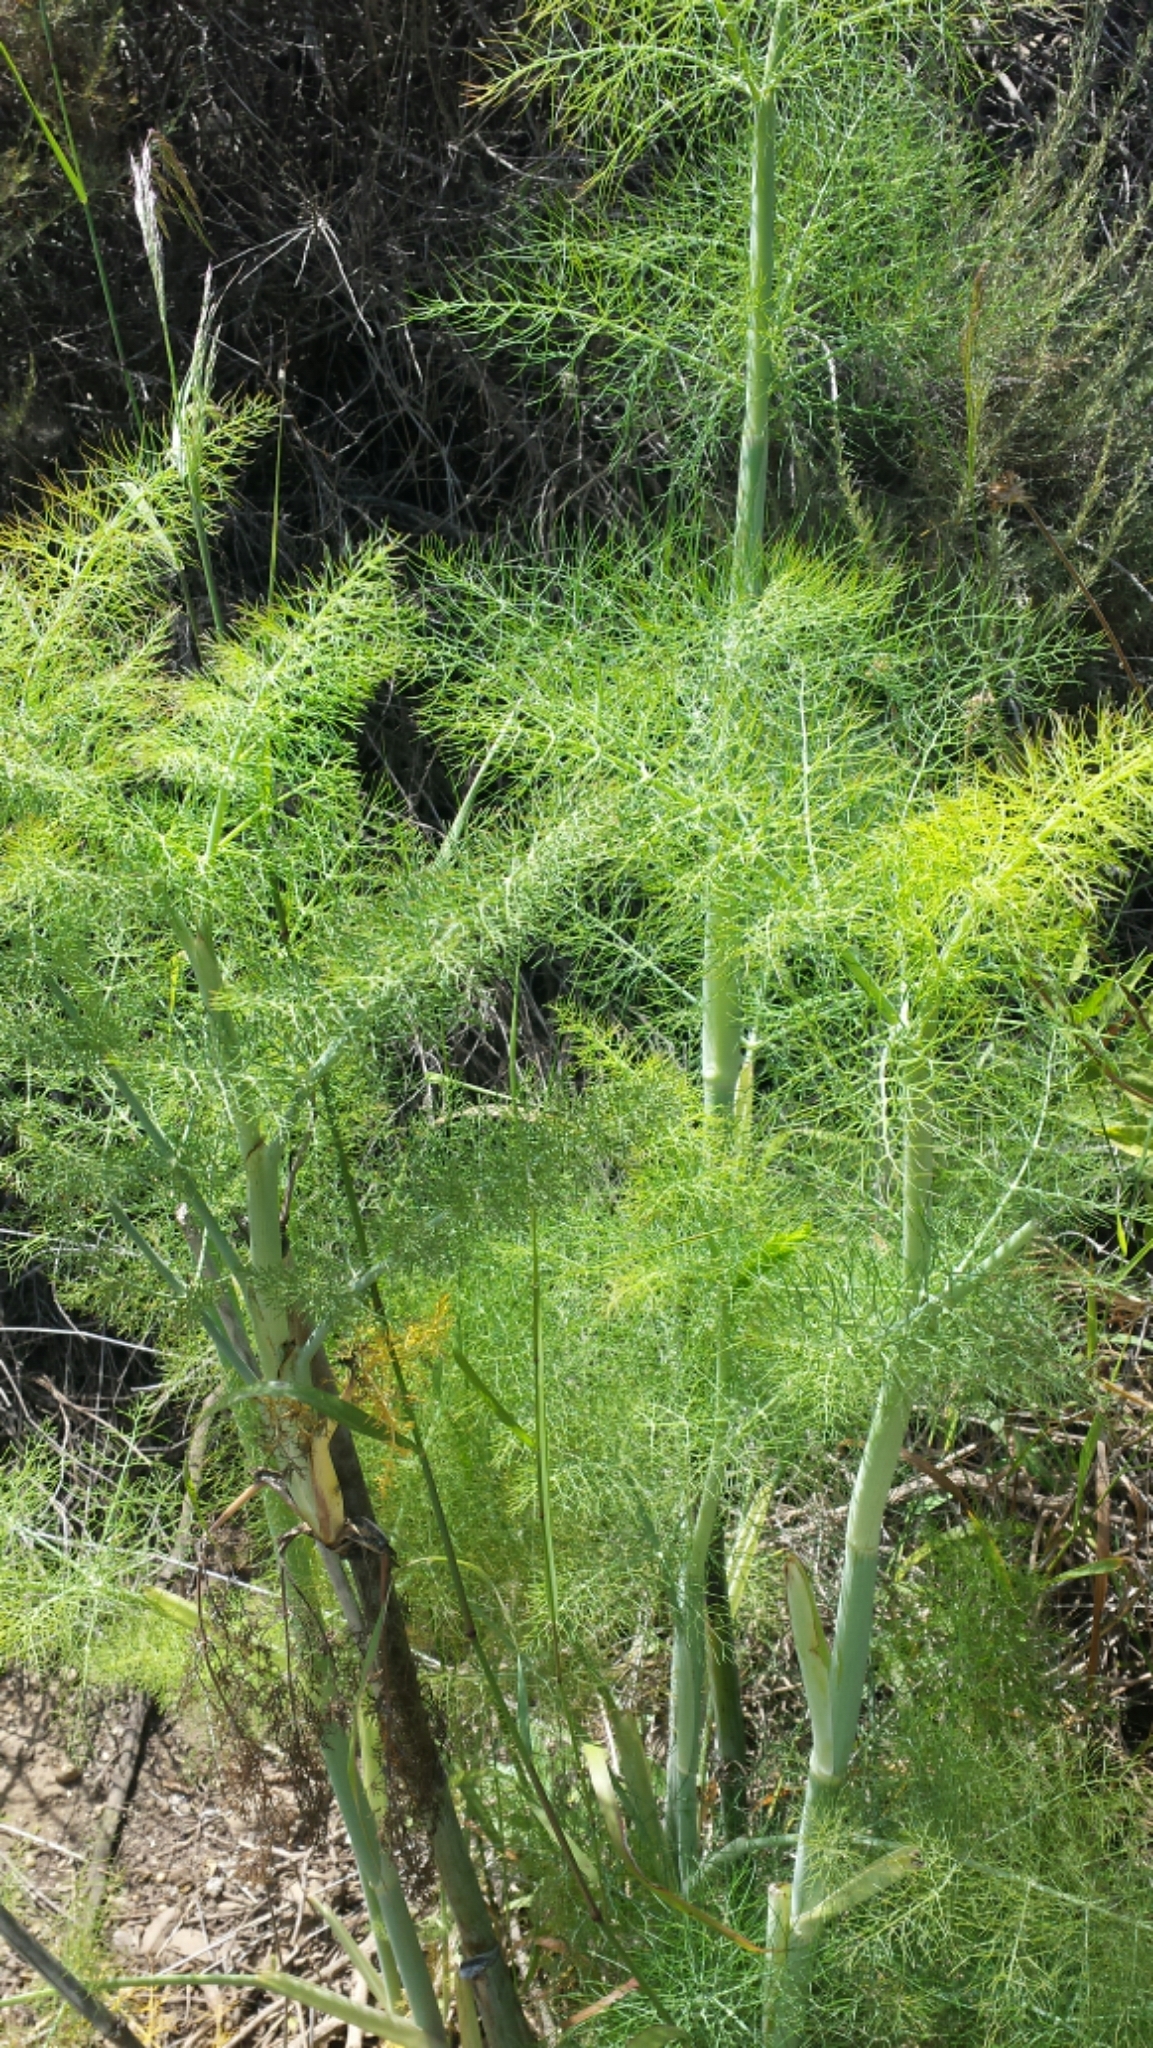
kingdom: Plantae
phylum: Tracheophyta
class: Magnoliopsida
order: Apiales
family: Apiaceae
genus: Foeniculum
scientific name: Foeniculum vulgare
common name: Fennel
